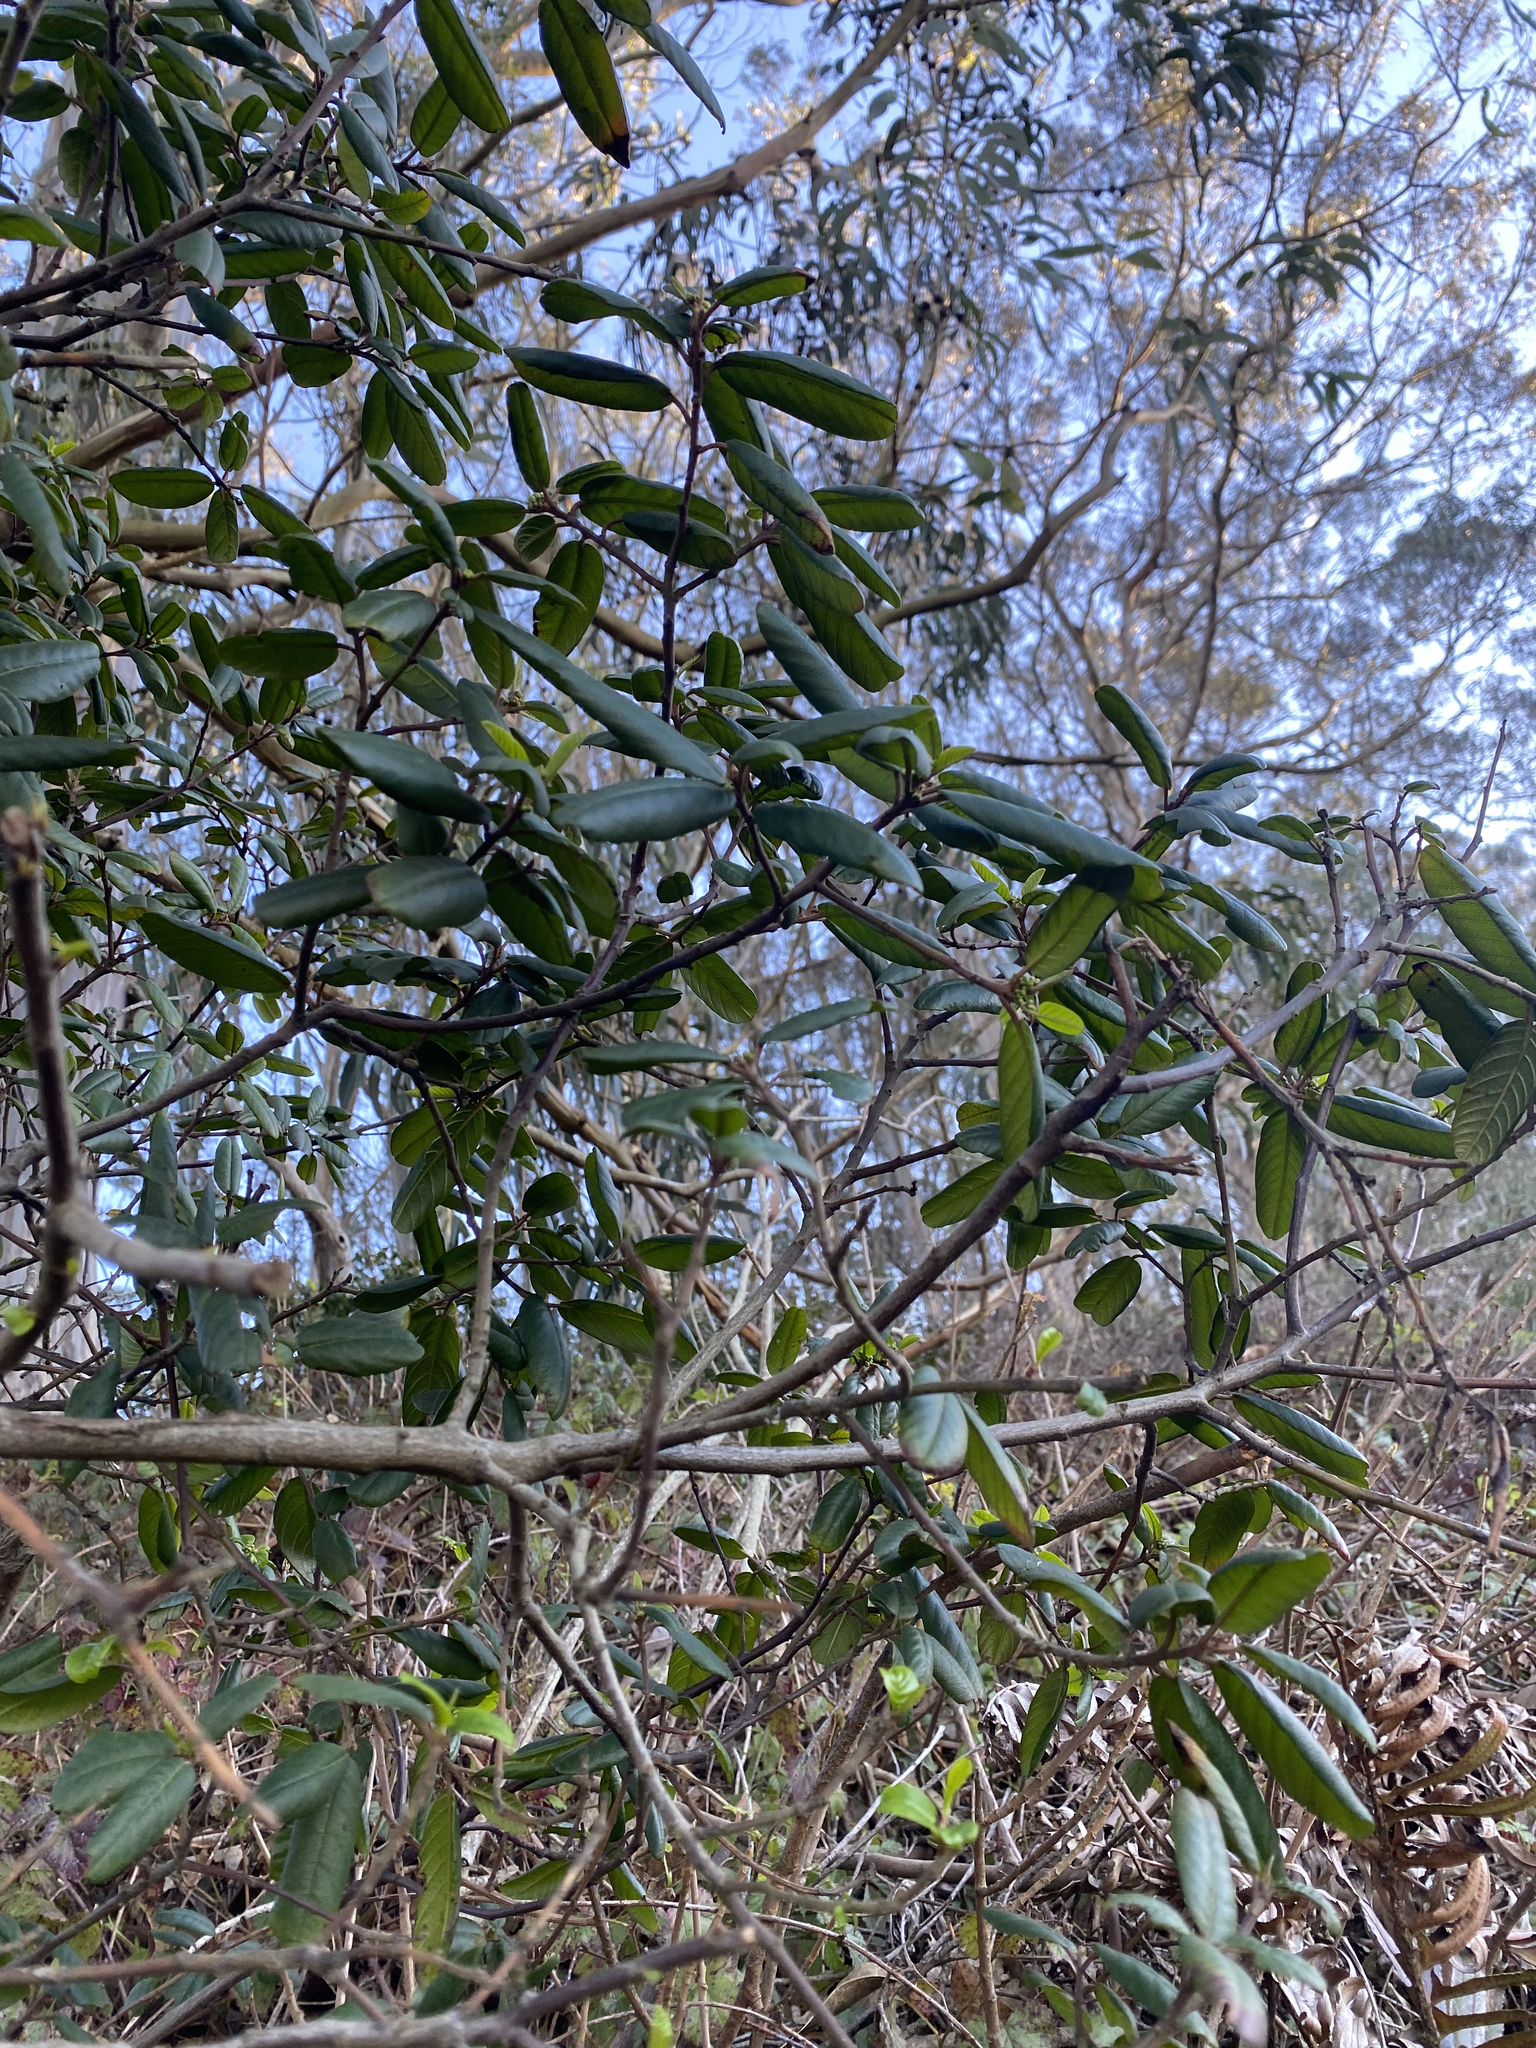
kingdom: Plantae
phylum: Tracheophyta
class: Magnoliopsida
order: Rosales
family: Rhamnaceae
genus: Frangula
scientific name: Frangula californica
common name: California buckthorn
